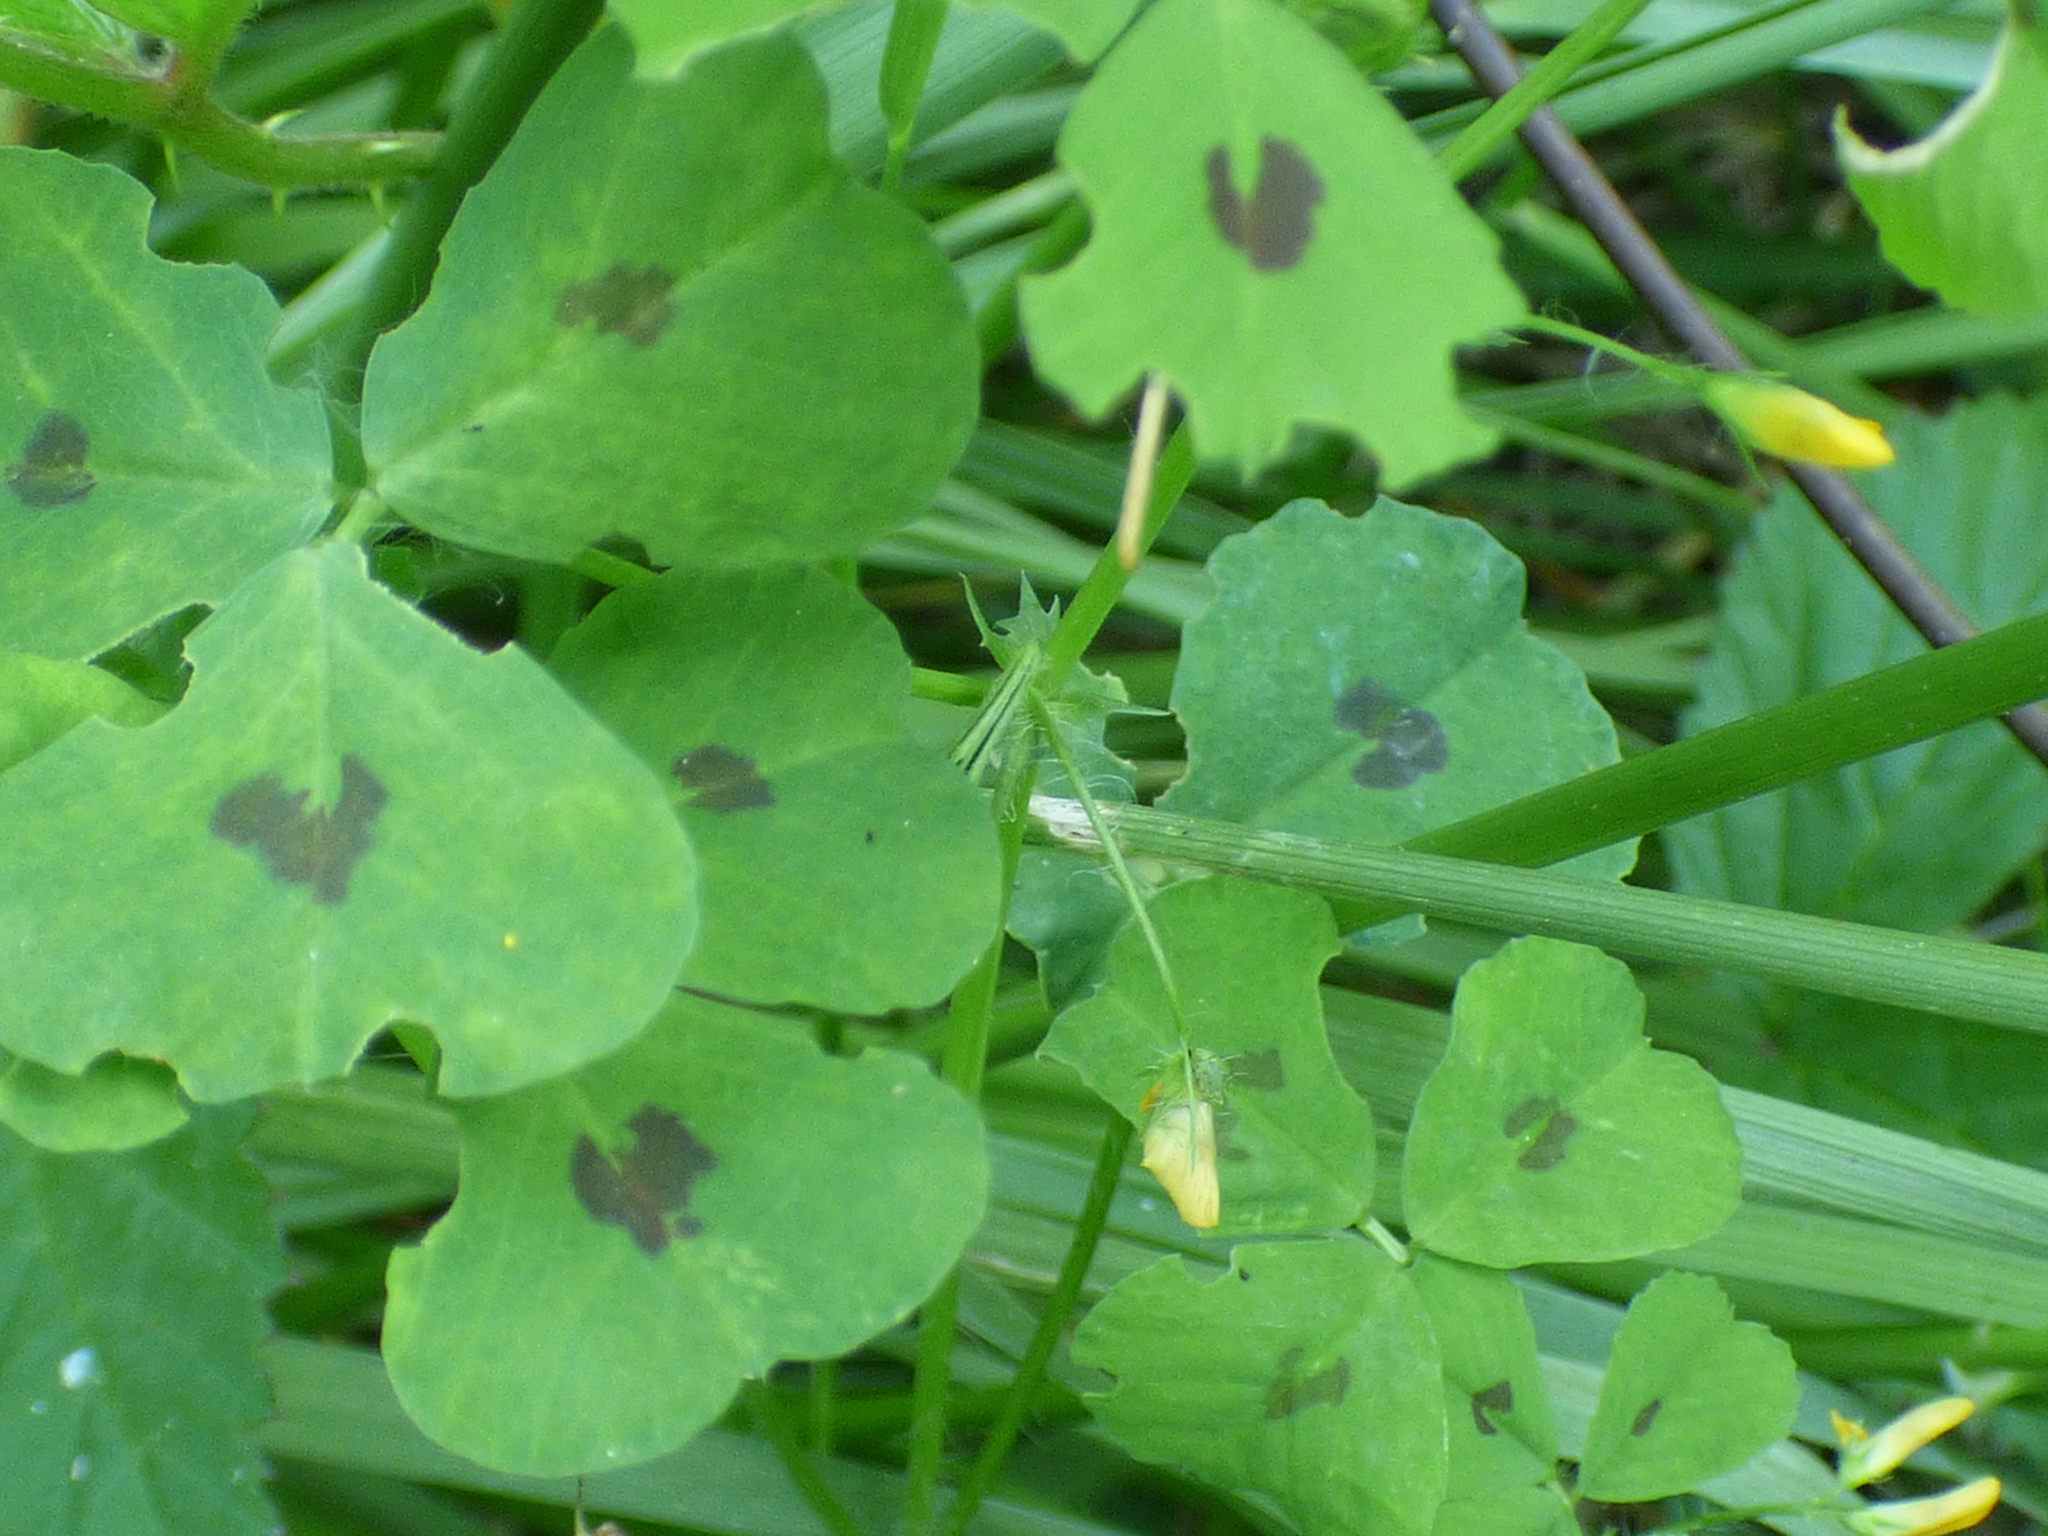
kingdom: Plantae
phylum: Tracheophyta
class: Magnoliopsida
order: Fabales
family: Fabaceae
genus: Medicago
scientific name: Medicago arabica
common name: Spotted medick
